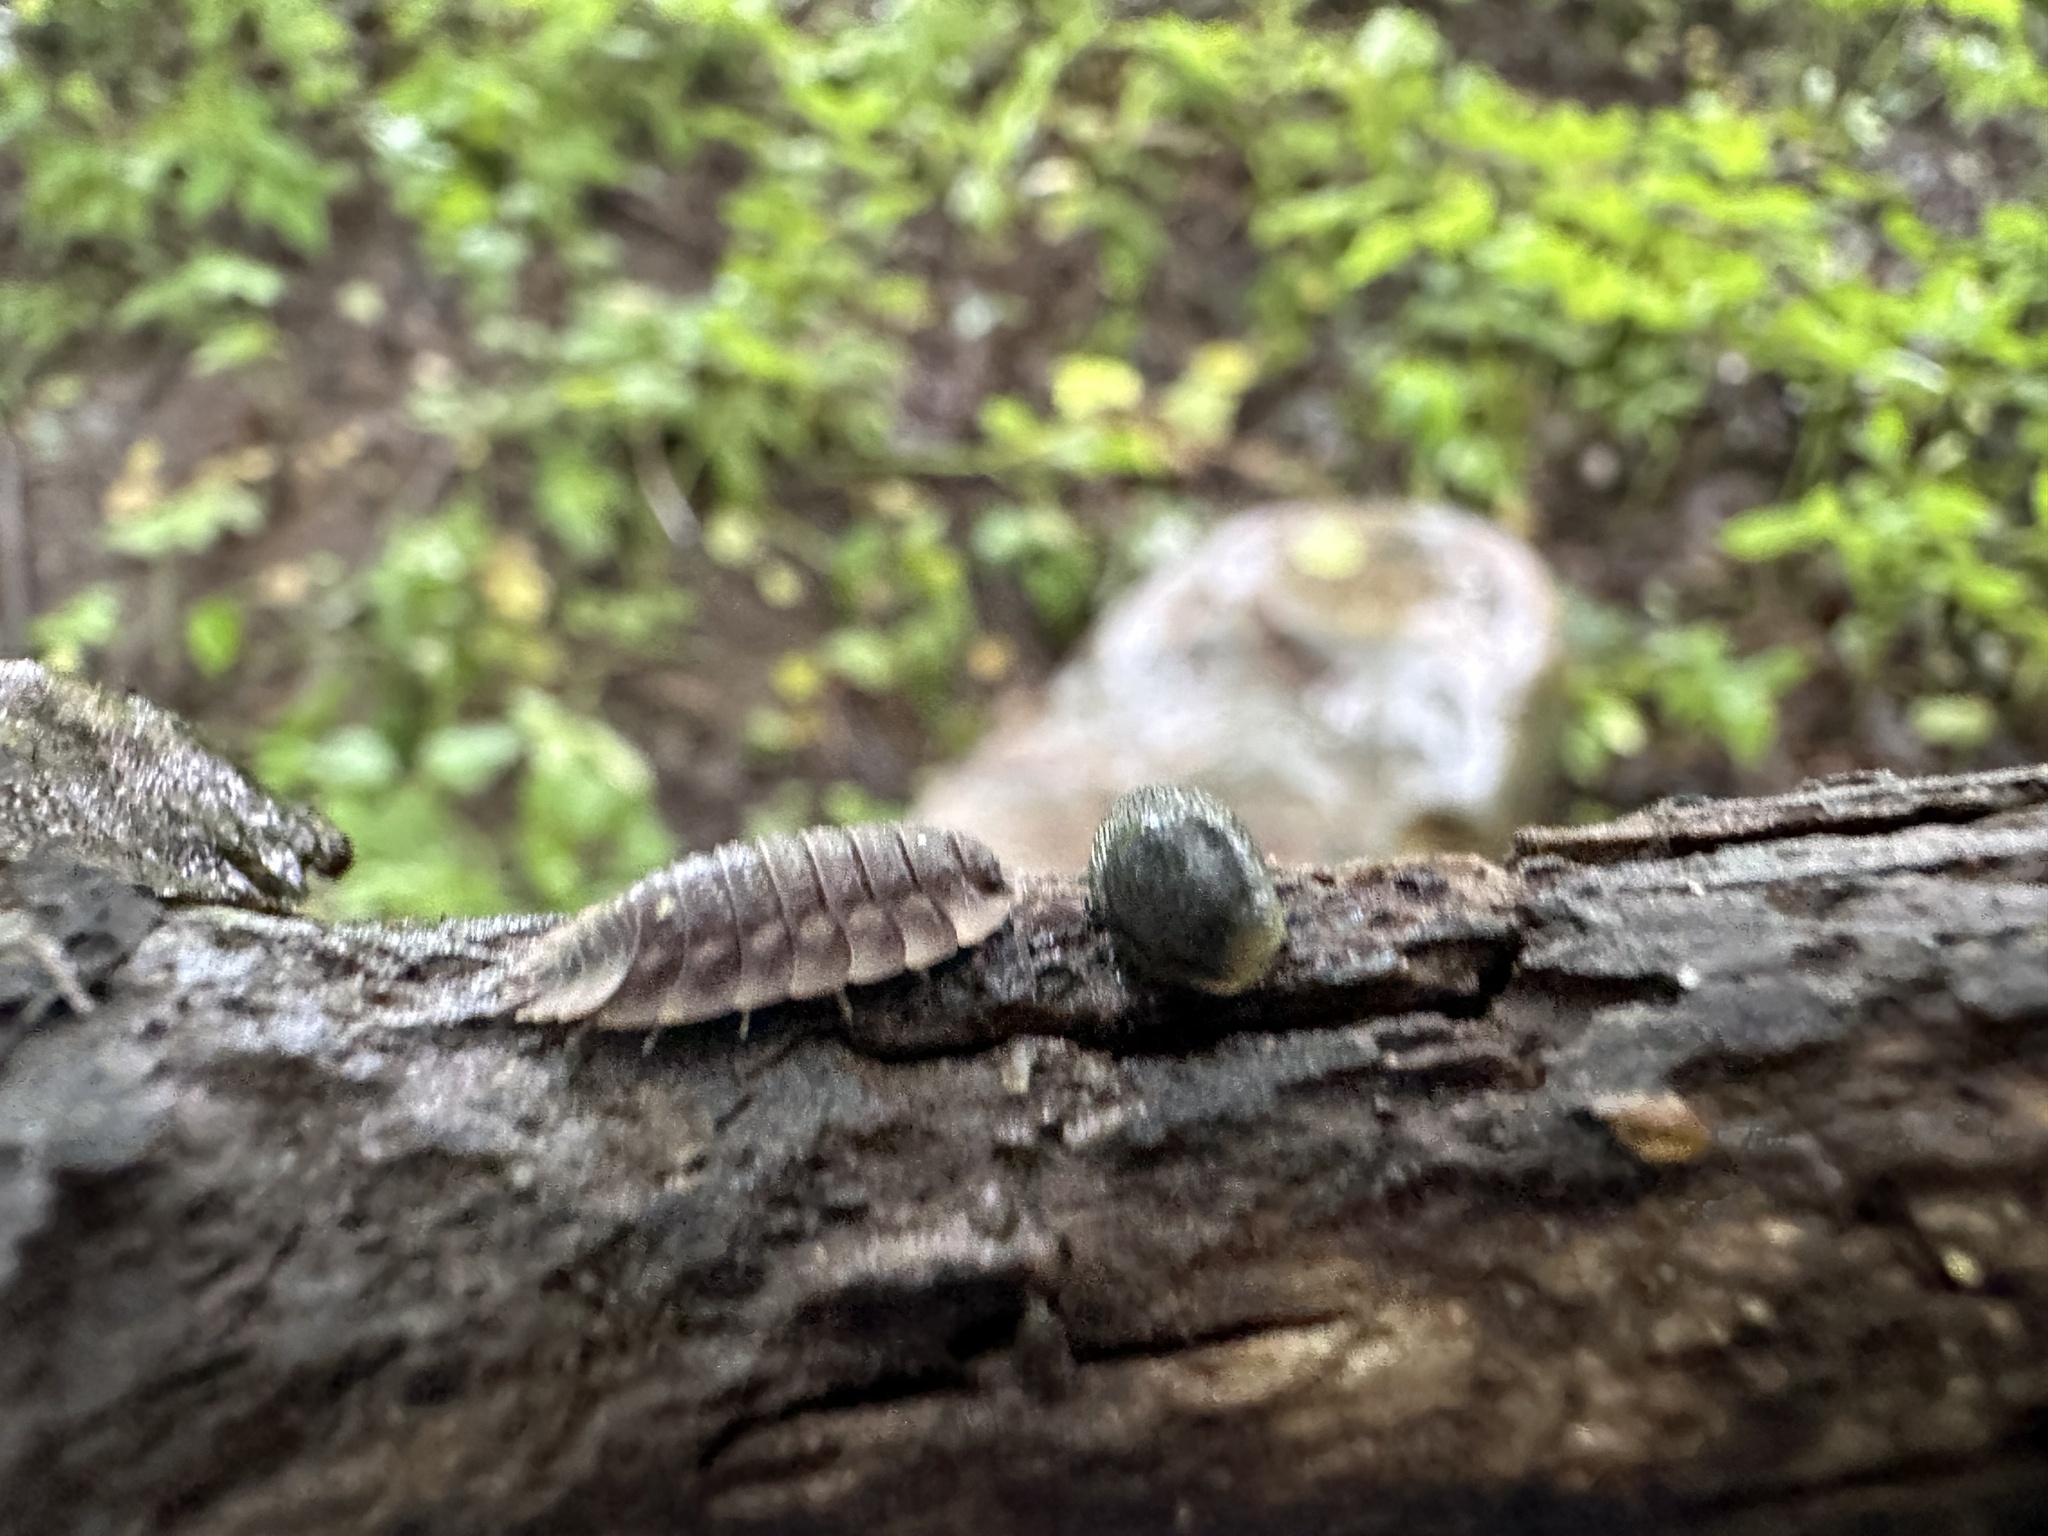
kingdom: Animalia
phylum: Arthropoda
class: Malacostraca
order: Isopoda
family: Oniscidae
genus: Oniscus
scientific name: Oniscus asellus
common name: Common shiny woodlouse
